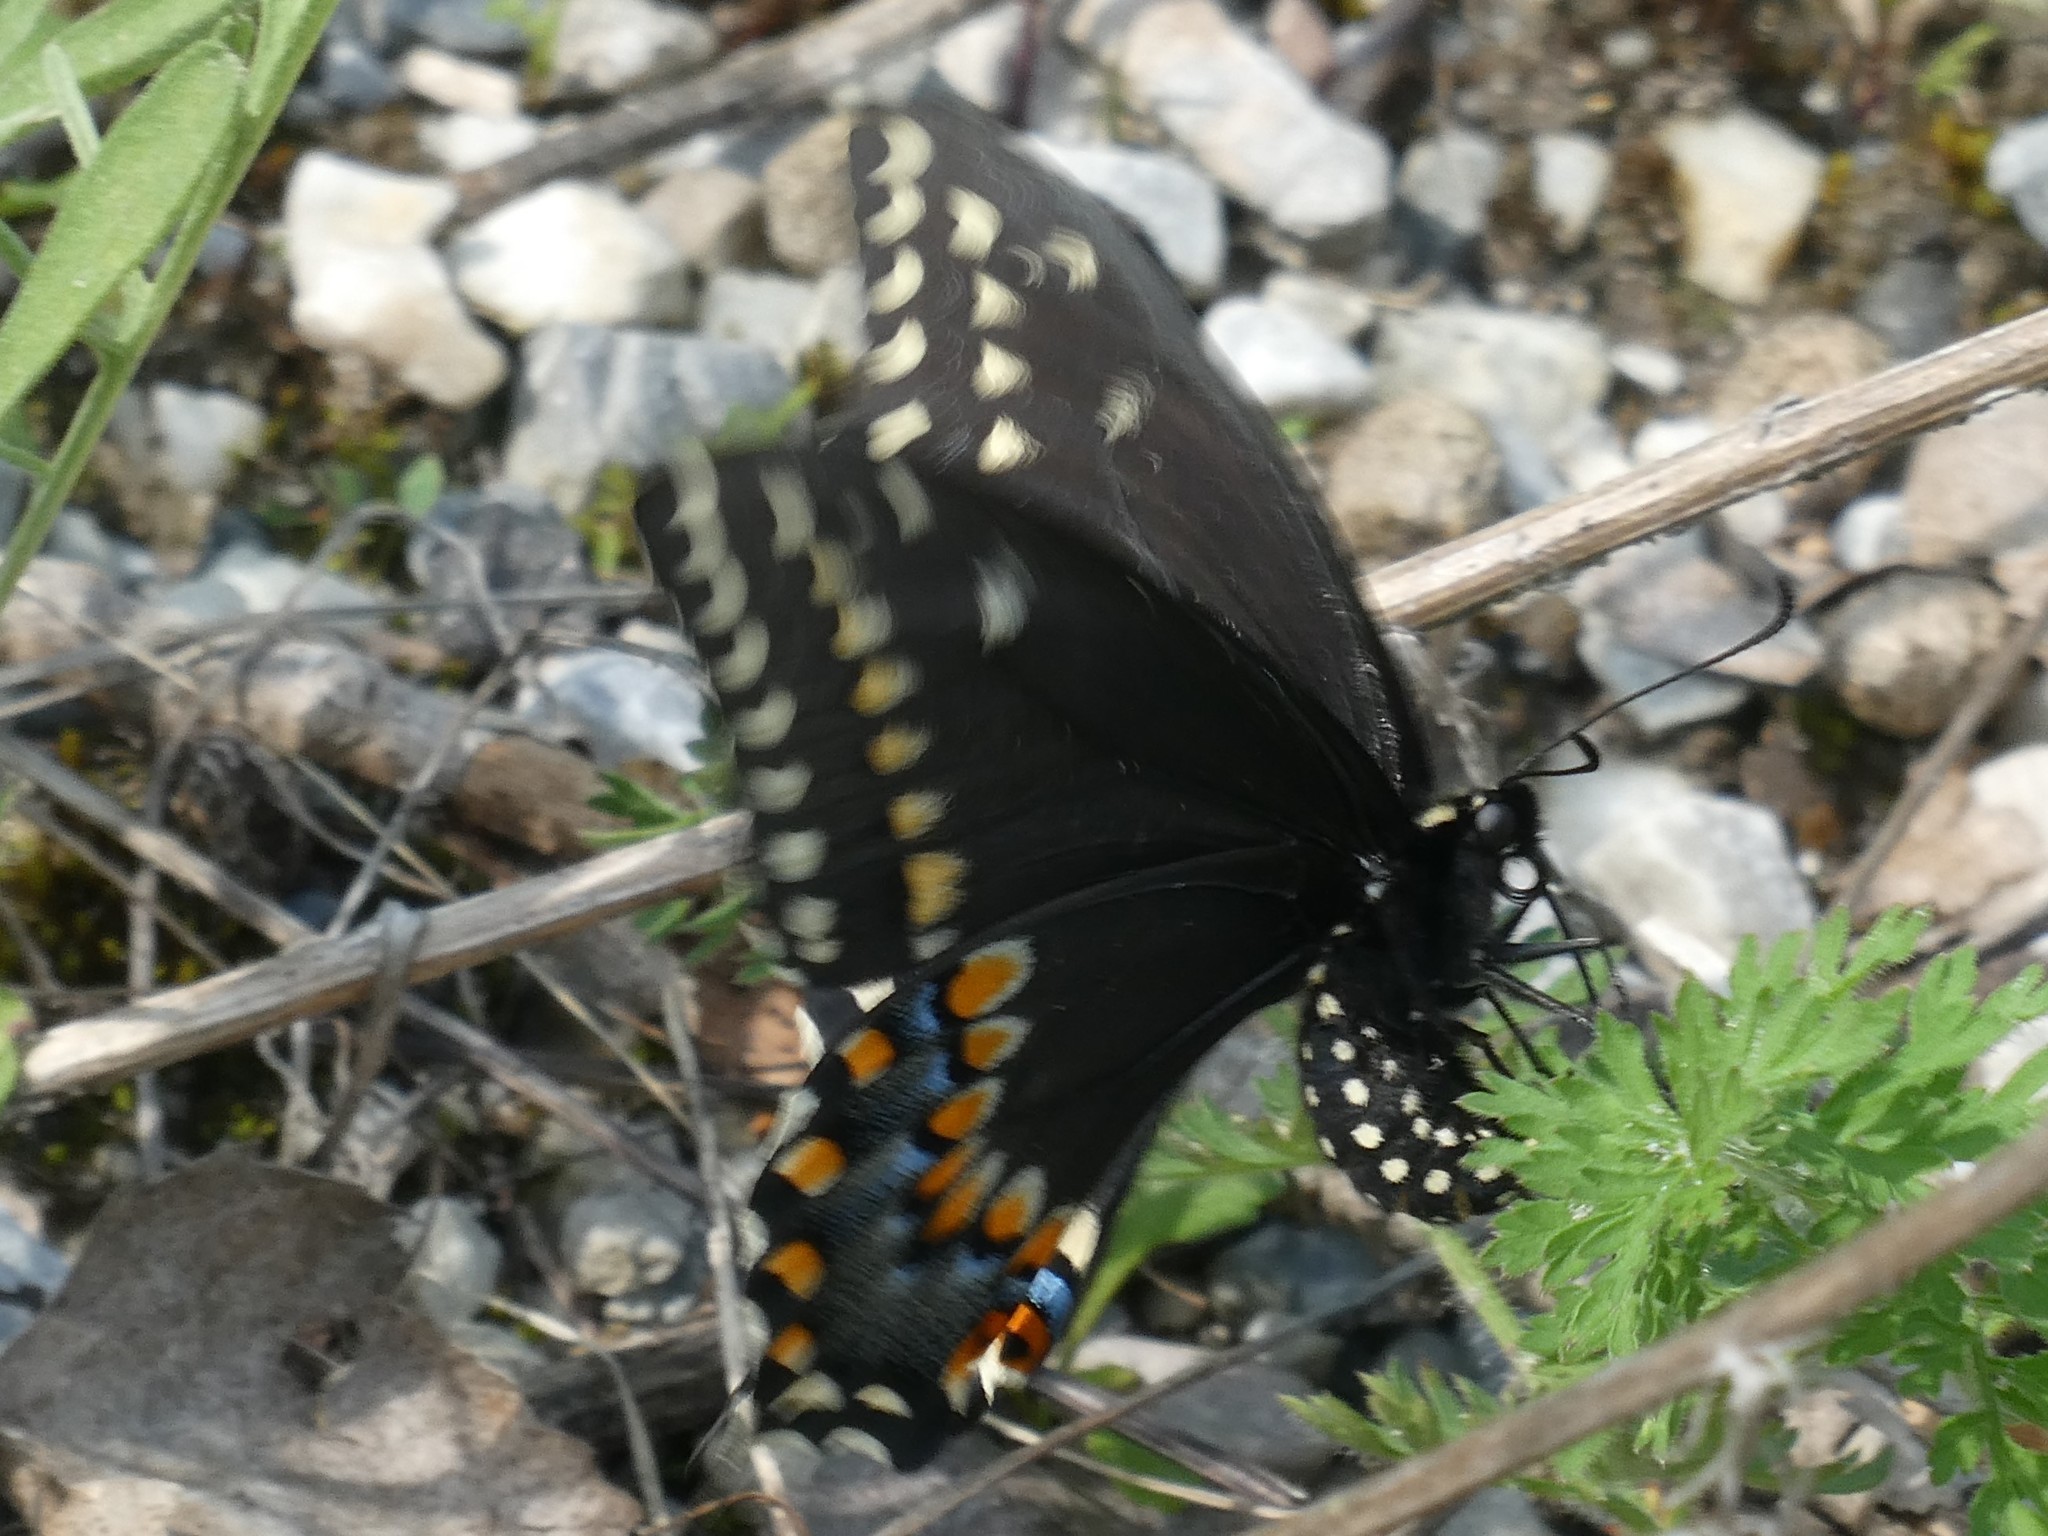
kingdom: Animalia
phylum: Arthropoda
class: Insecta
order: Lepidoptera
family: Papilionidae
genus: Papilio
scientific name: Papilio polyxenes
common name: Black swallowtail
